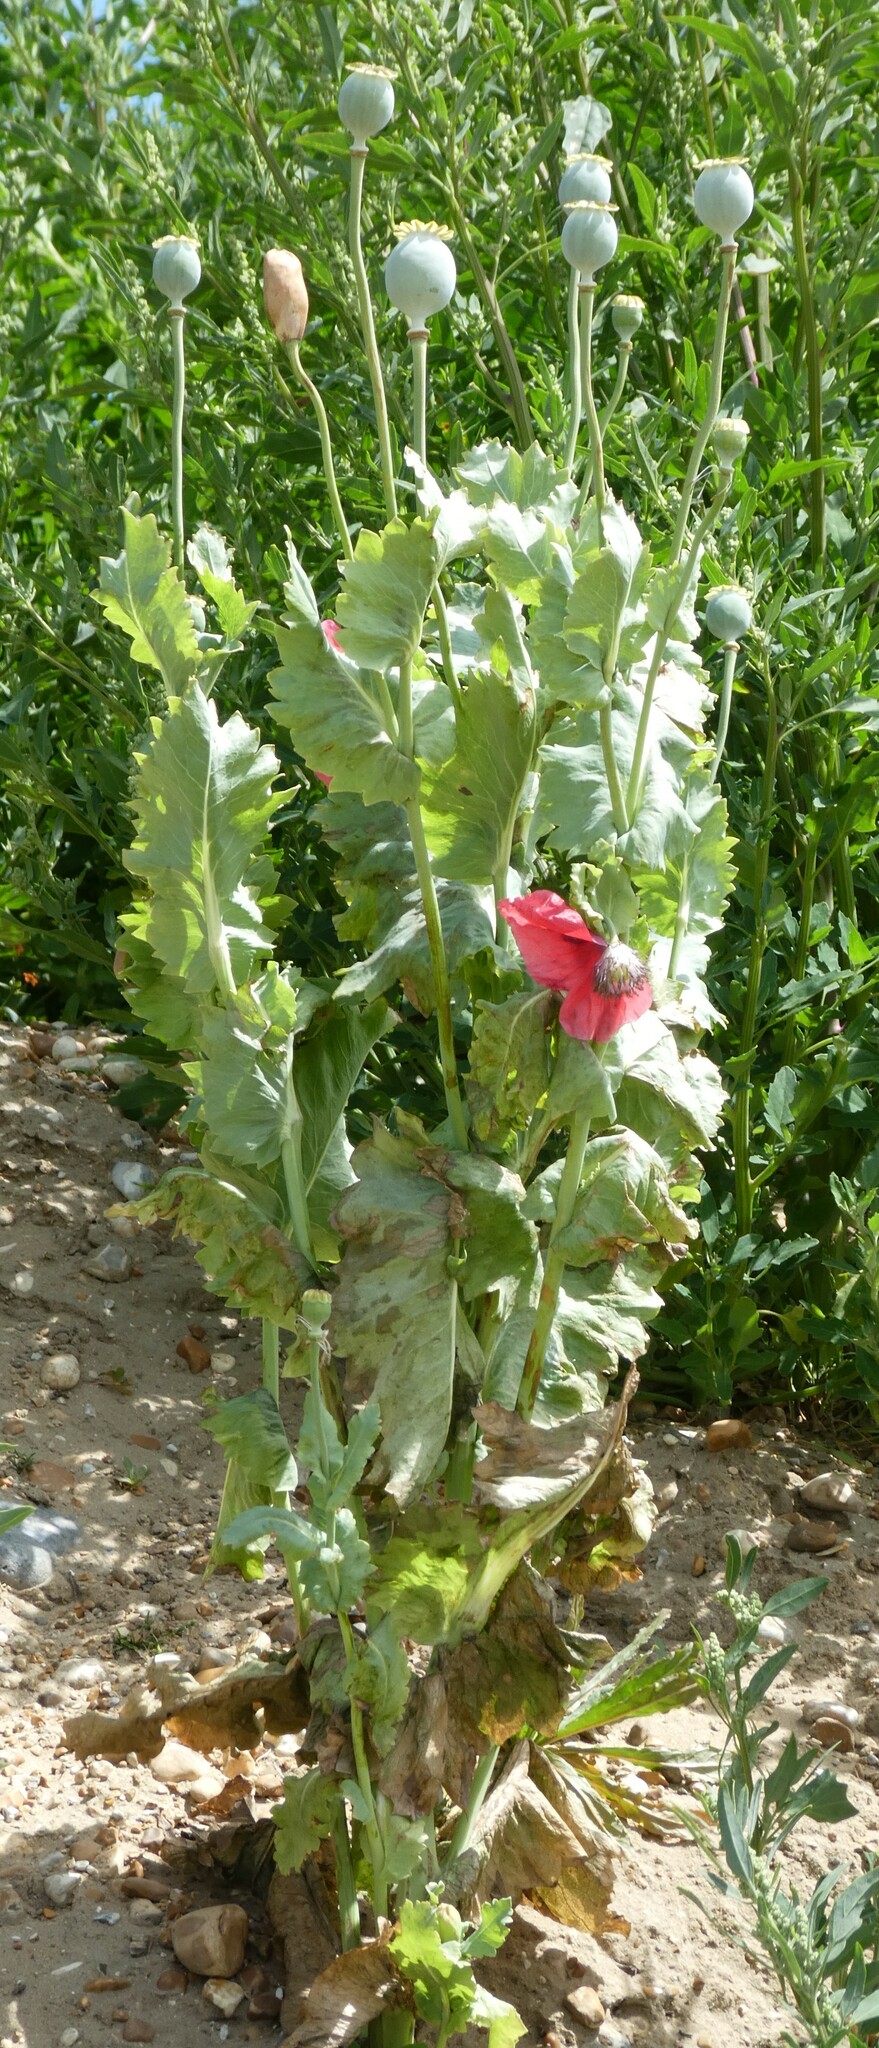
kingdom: Plantae
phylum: Tracheophyta
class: Magnoliopsida
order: Ranunculales
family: Papaveraceae
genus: Papaver
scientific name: Papaver somniferum
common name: Opium poppy
